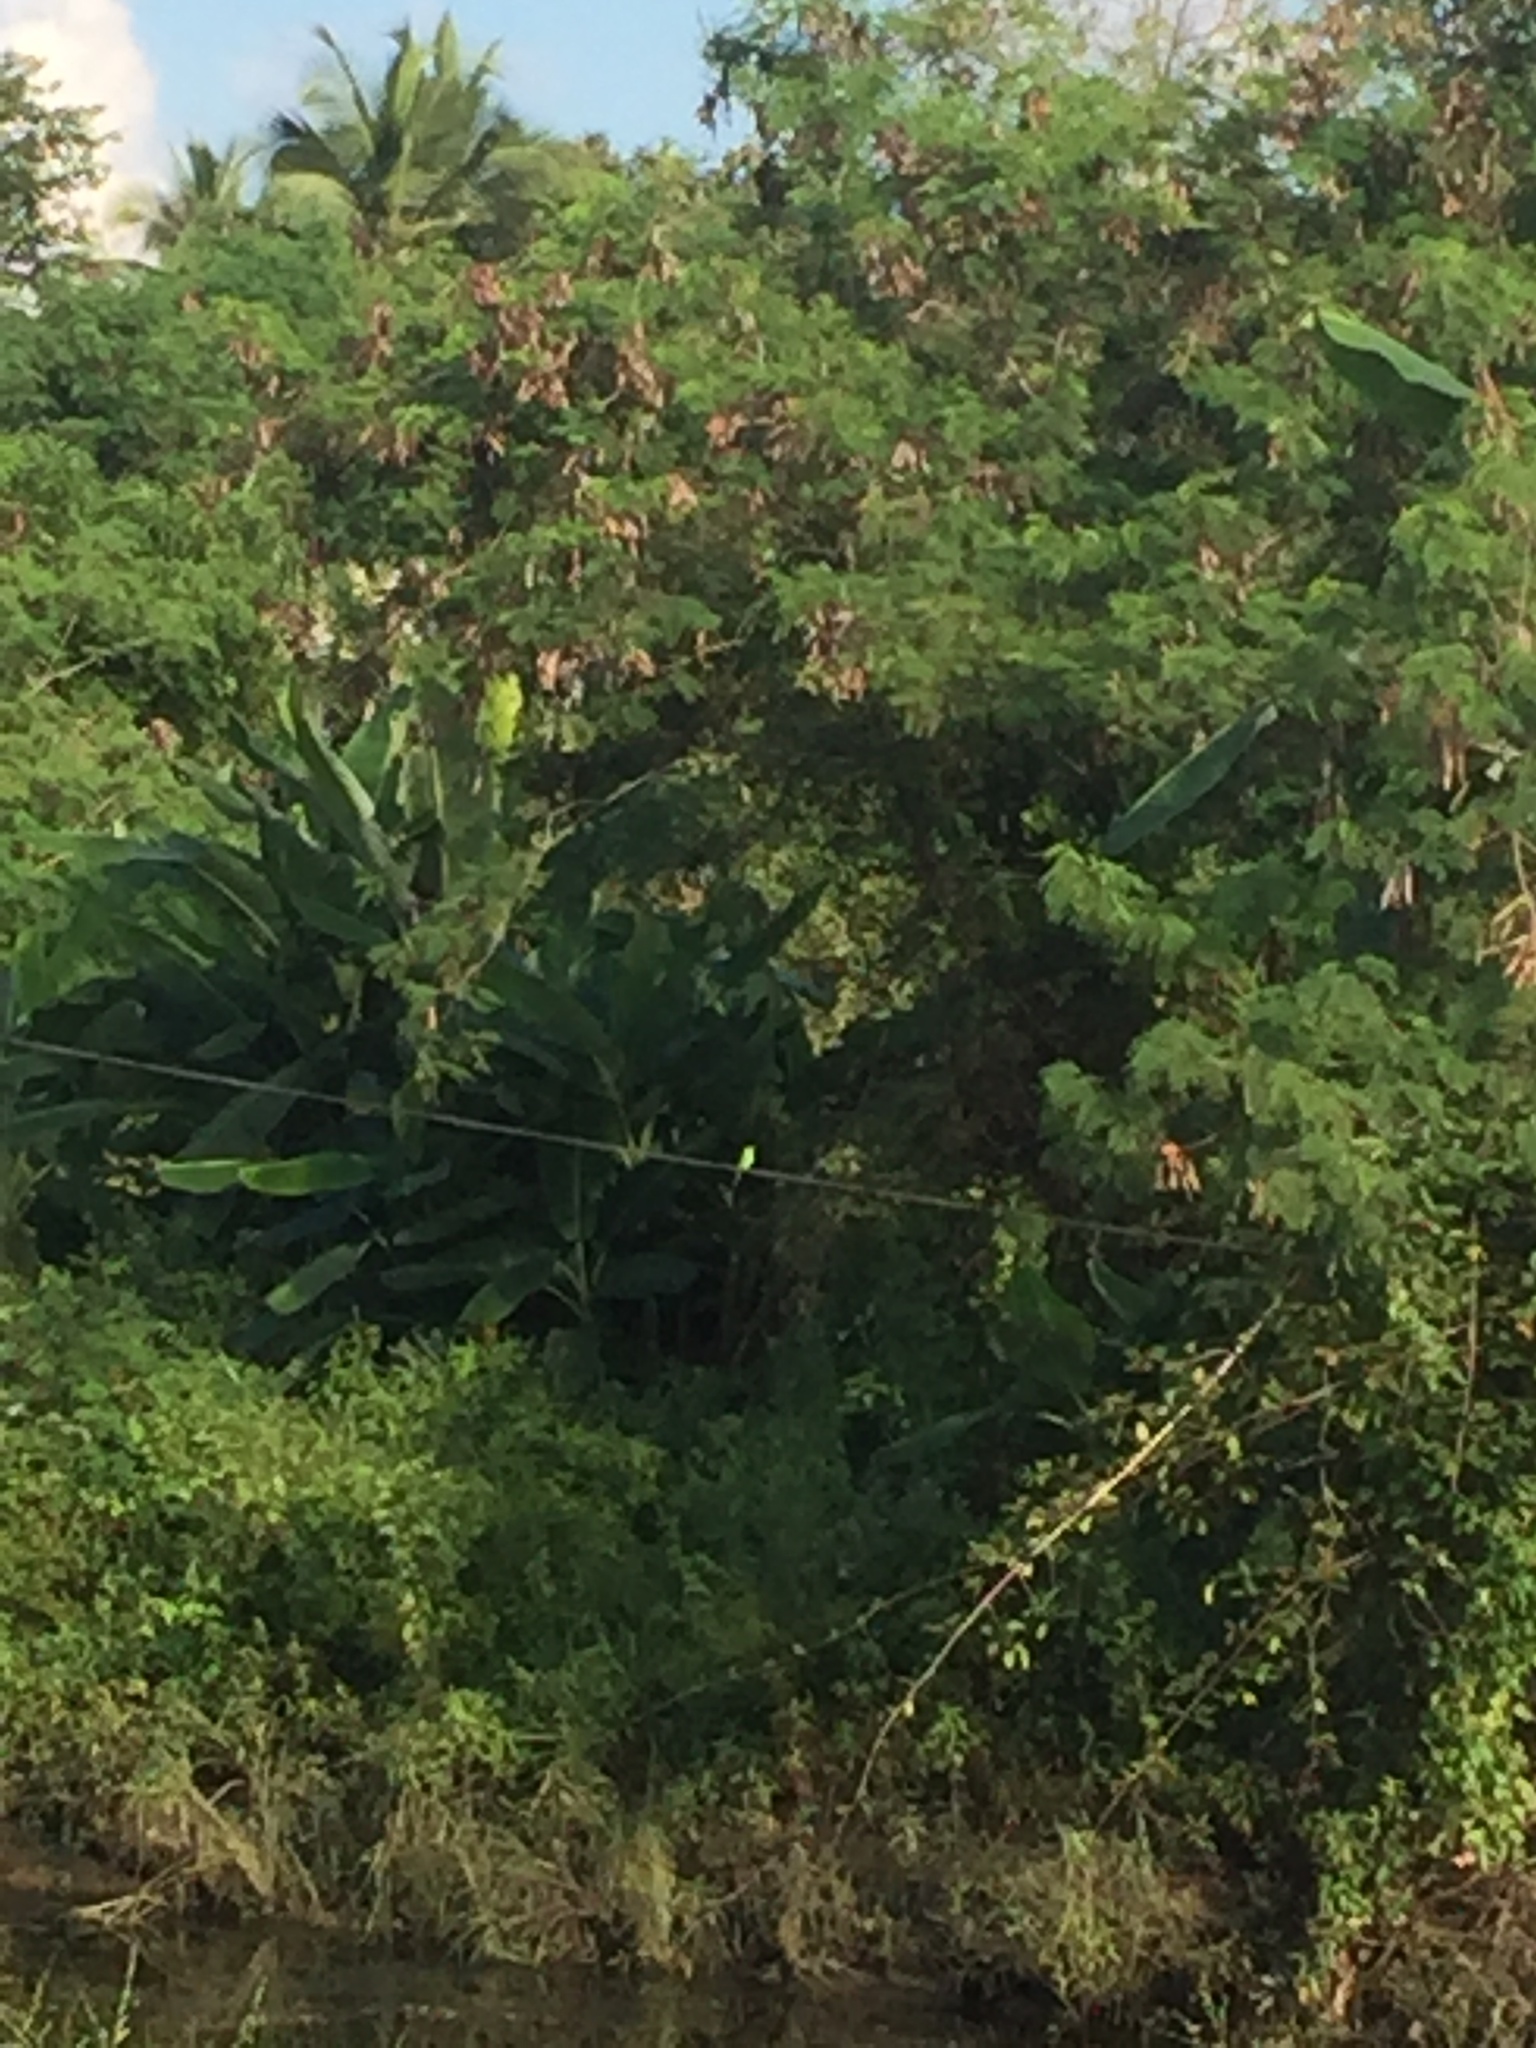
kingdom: Animalia
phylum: Chordata
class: Aves
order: Coraciiformes
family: Meropidae
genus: Merops
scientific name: Merops orientalis
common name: Green bee-eater
